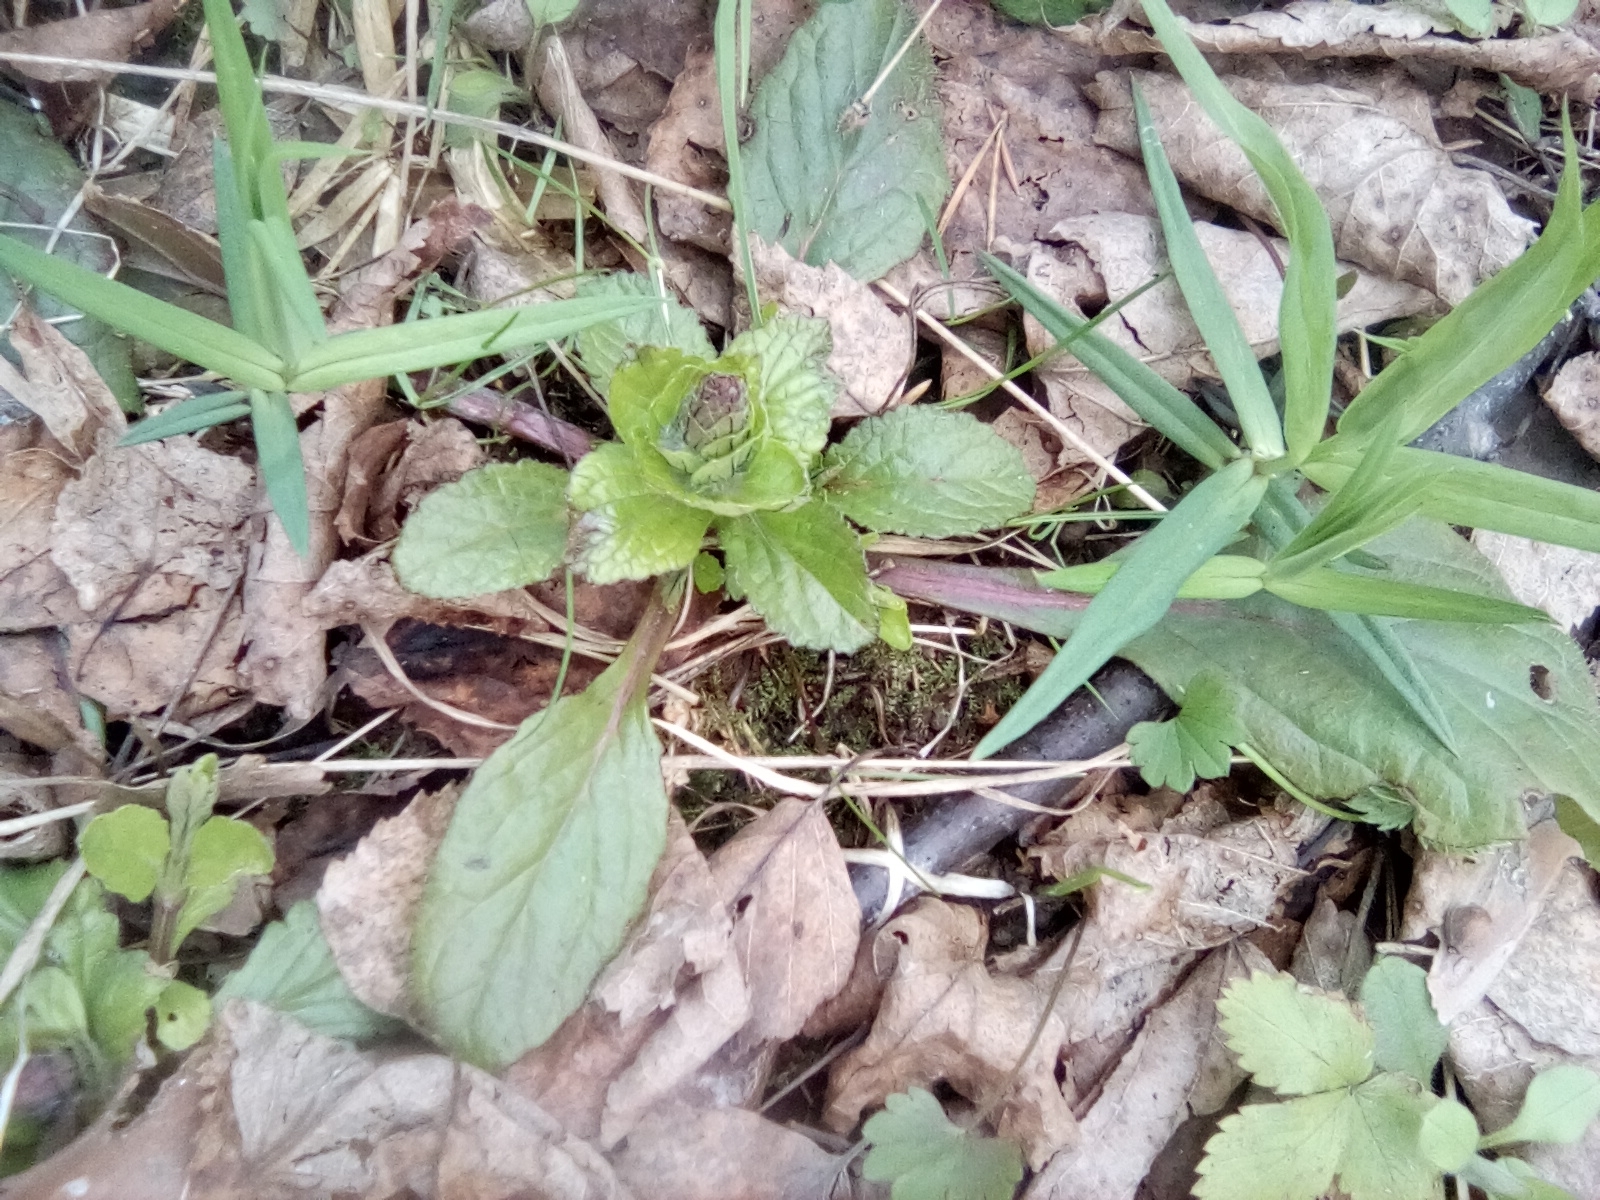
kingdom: Plantae
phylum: Tracheophyta
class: Magnoliopsida
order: Lamiales
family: Lamiaceae
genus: Ajuga
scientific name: Ajuga reptans
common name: Bugle
